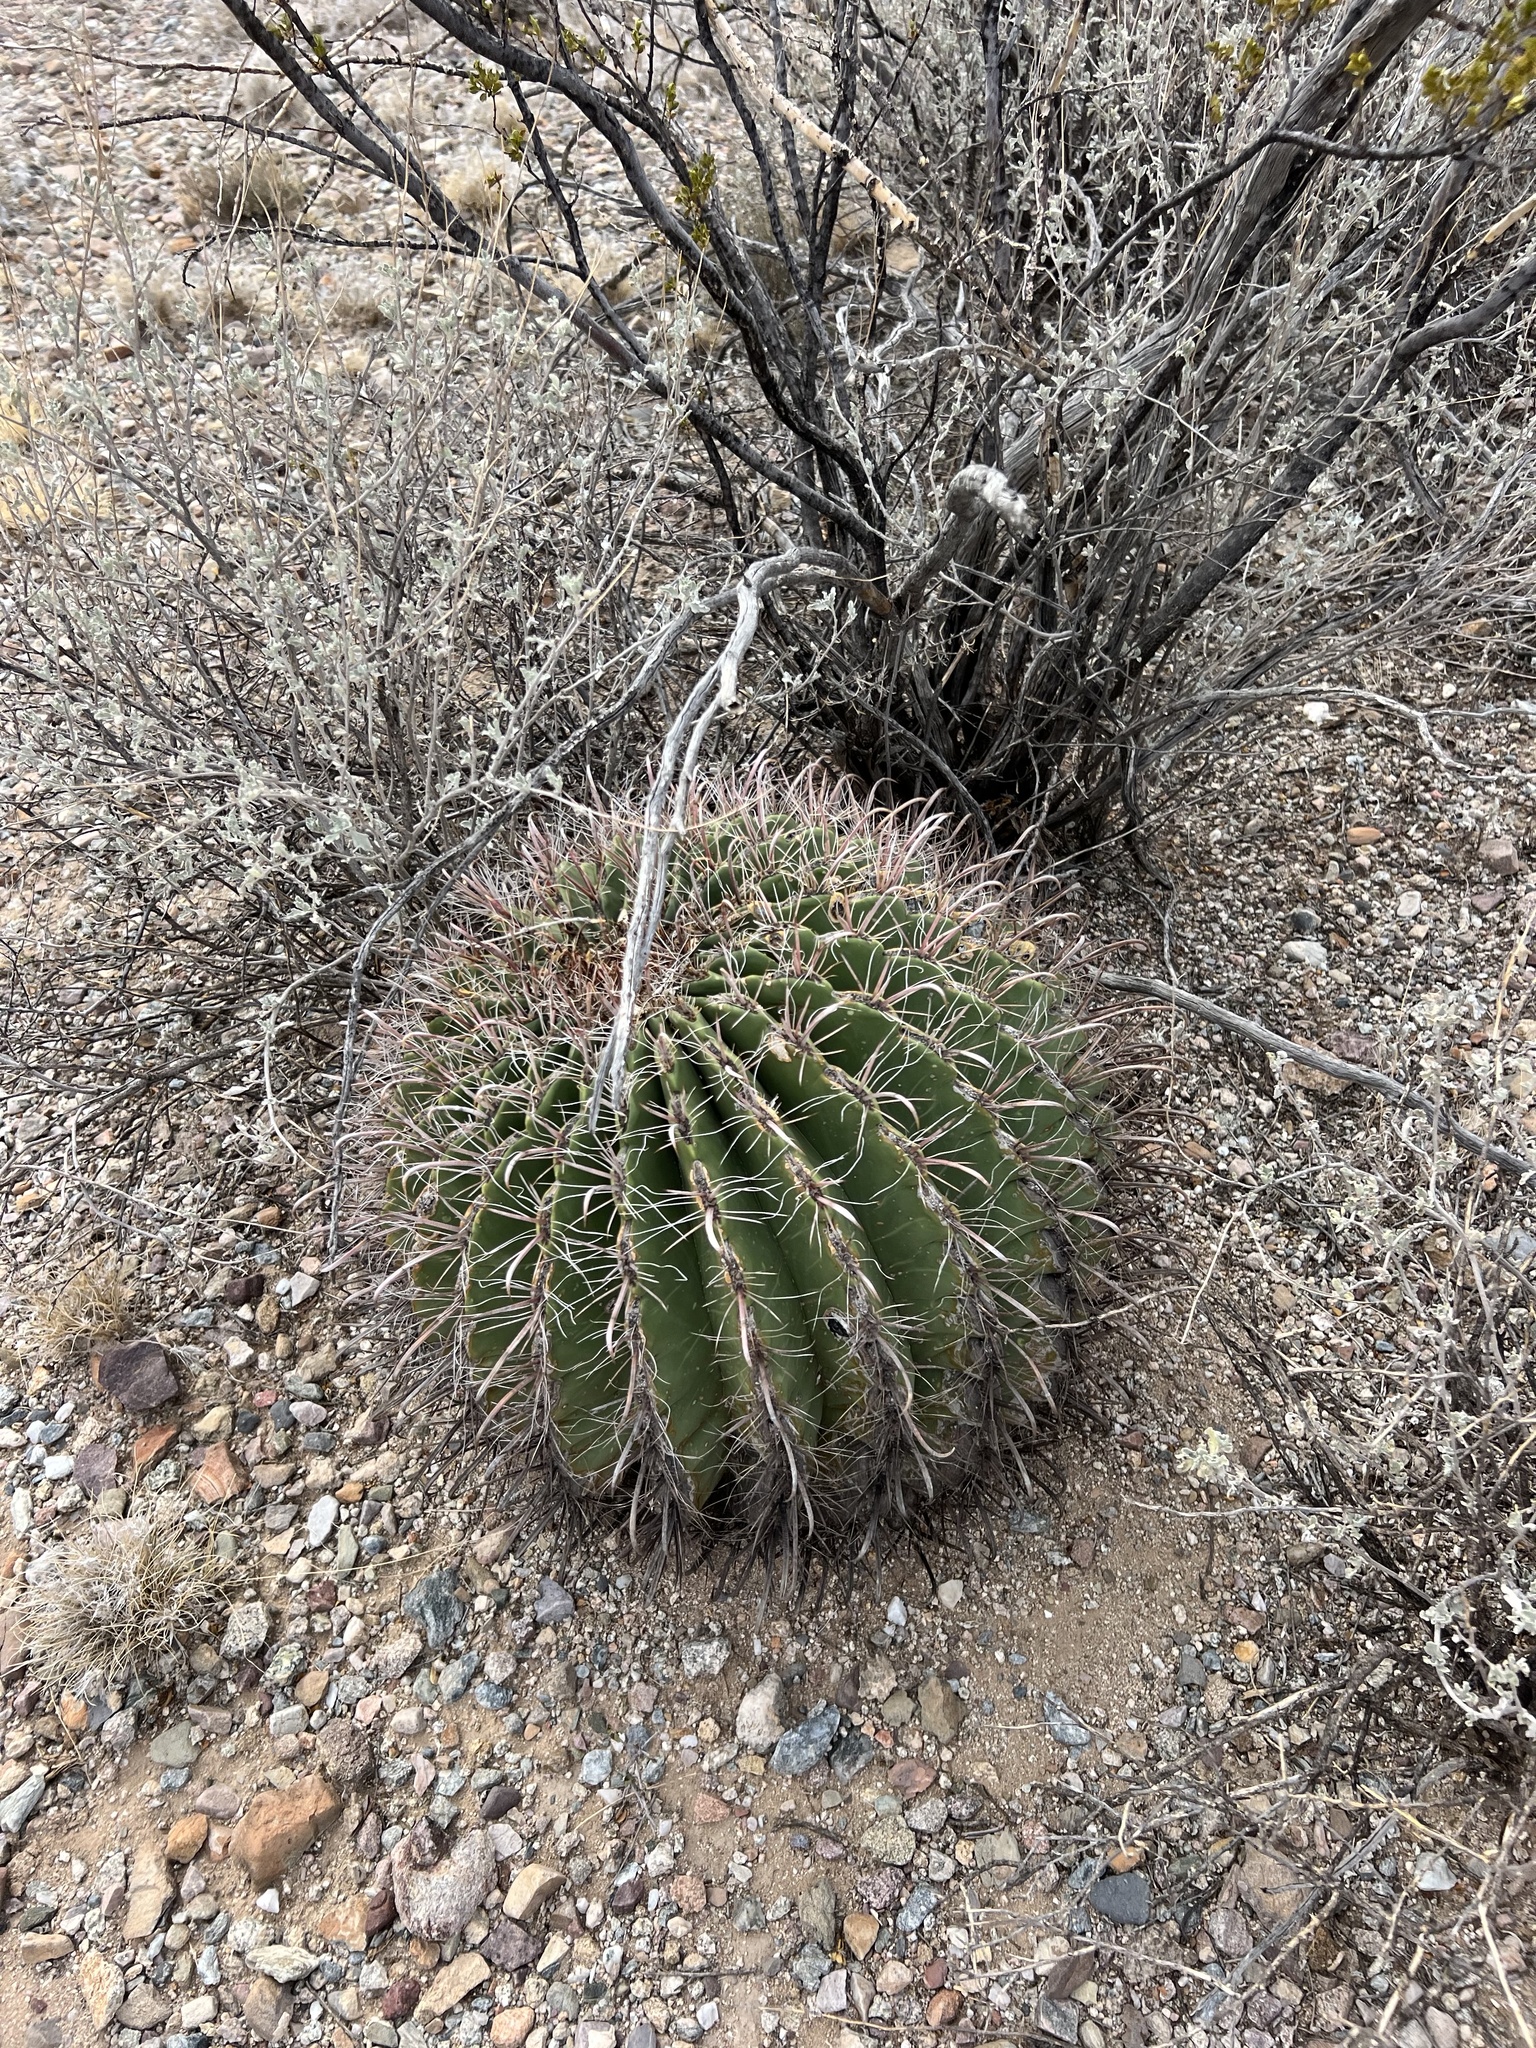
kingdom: Plantae
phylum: Tracheophyta
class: Magnoliopsida
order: Caryophyllales
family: Cactaceae
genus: Ferocactus
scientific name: Ferocactus wislizeni
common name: Candy barrel cactus
